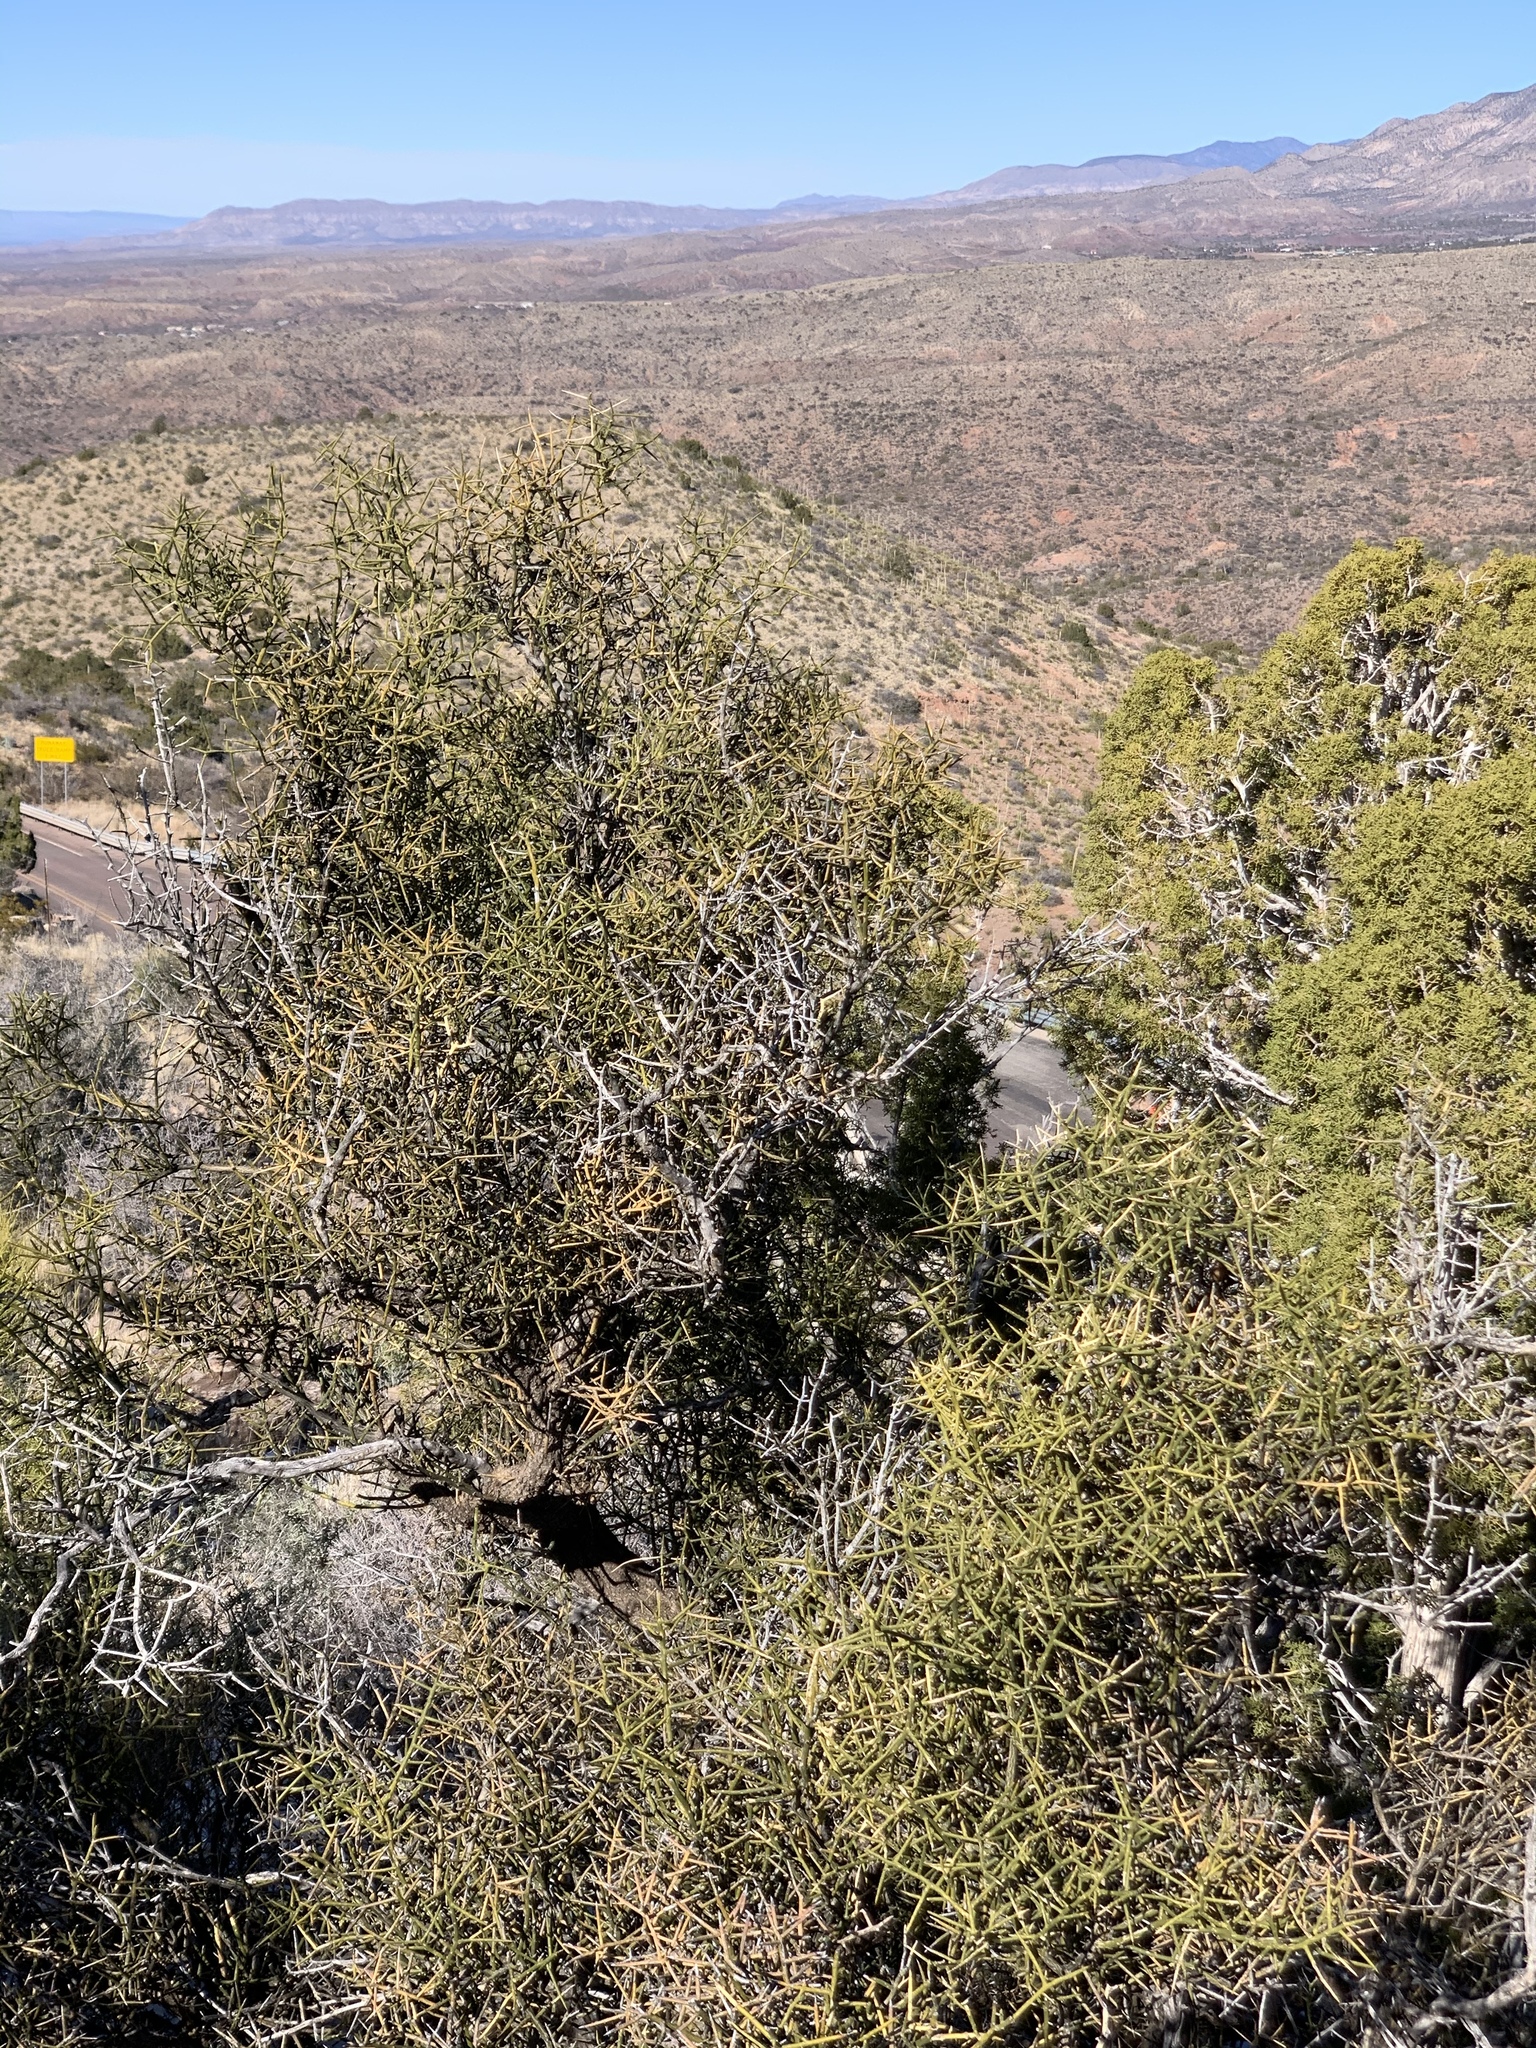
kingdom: Plantae
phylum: Tracheophyta
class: Magnoliopsida
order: Brassicales
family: Koeberliniaceae
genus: Koeberlinia
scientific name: Koeberlinia spinosa
